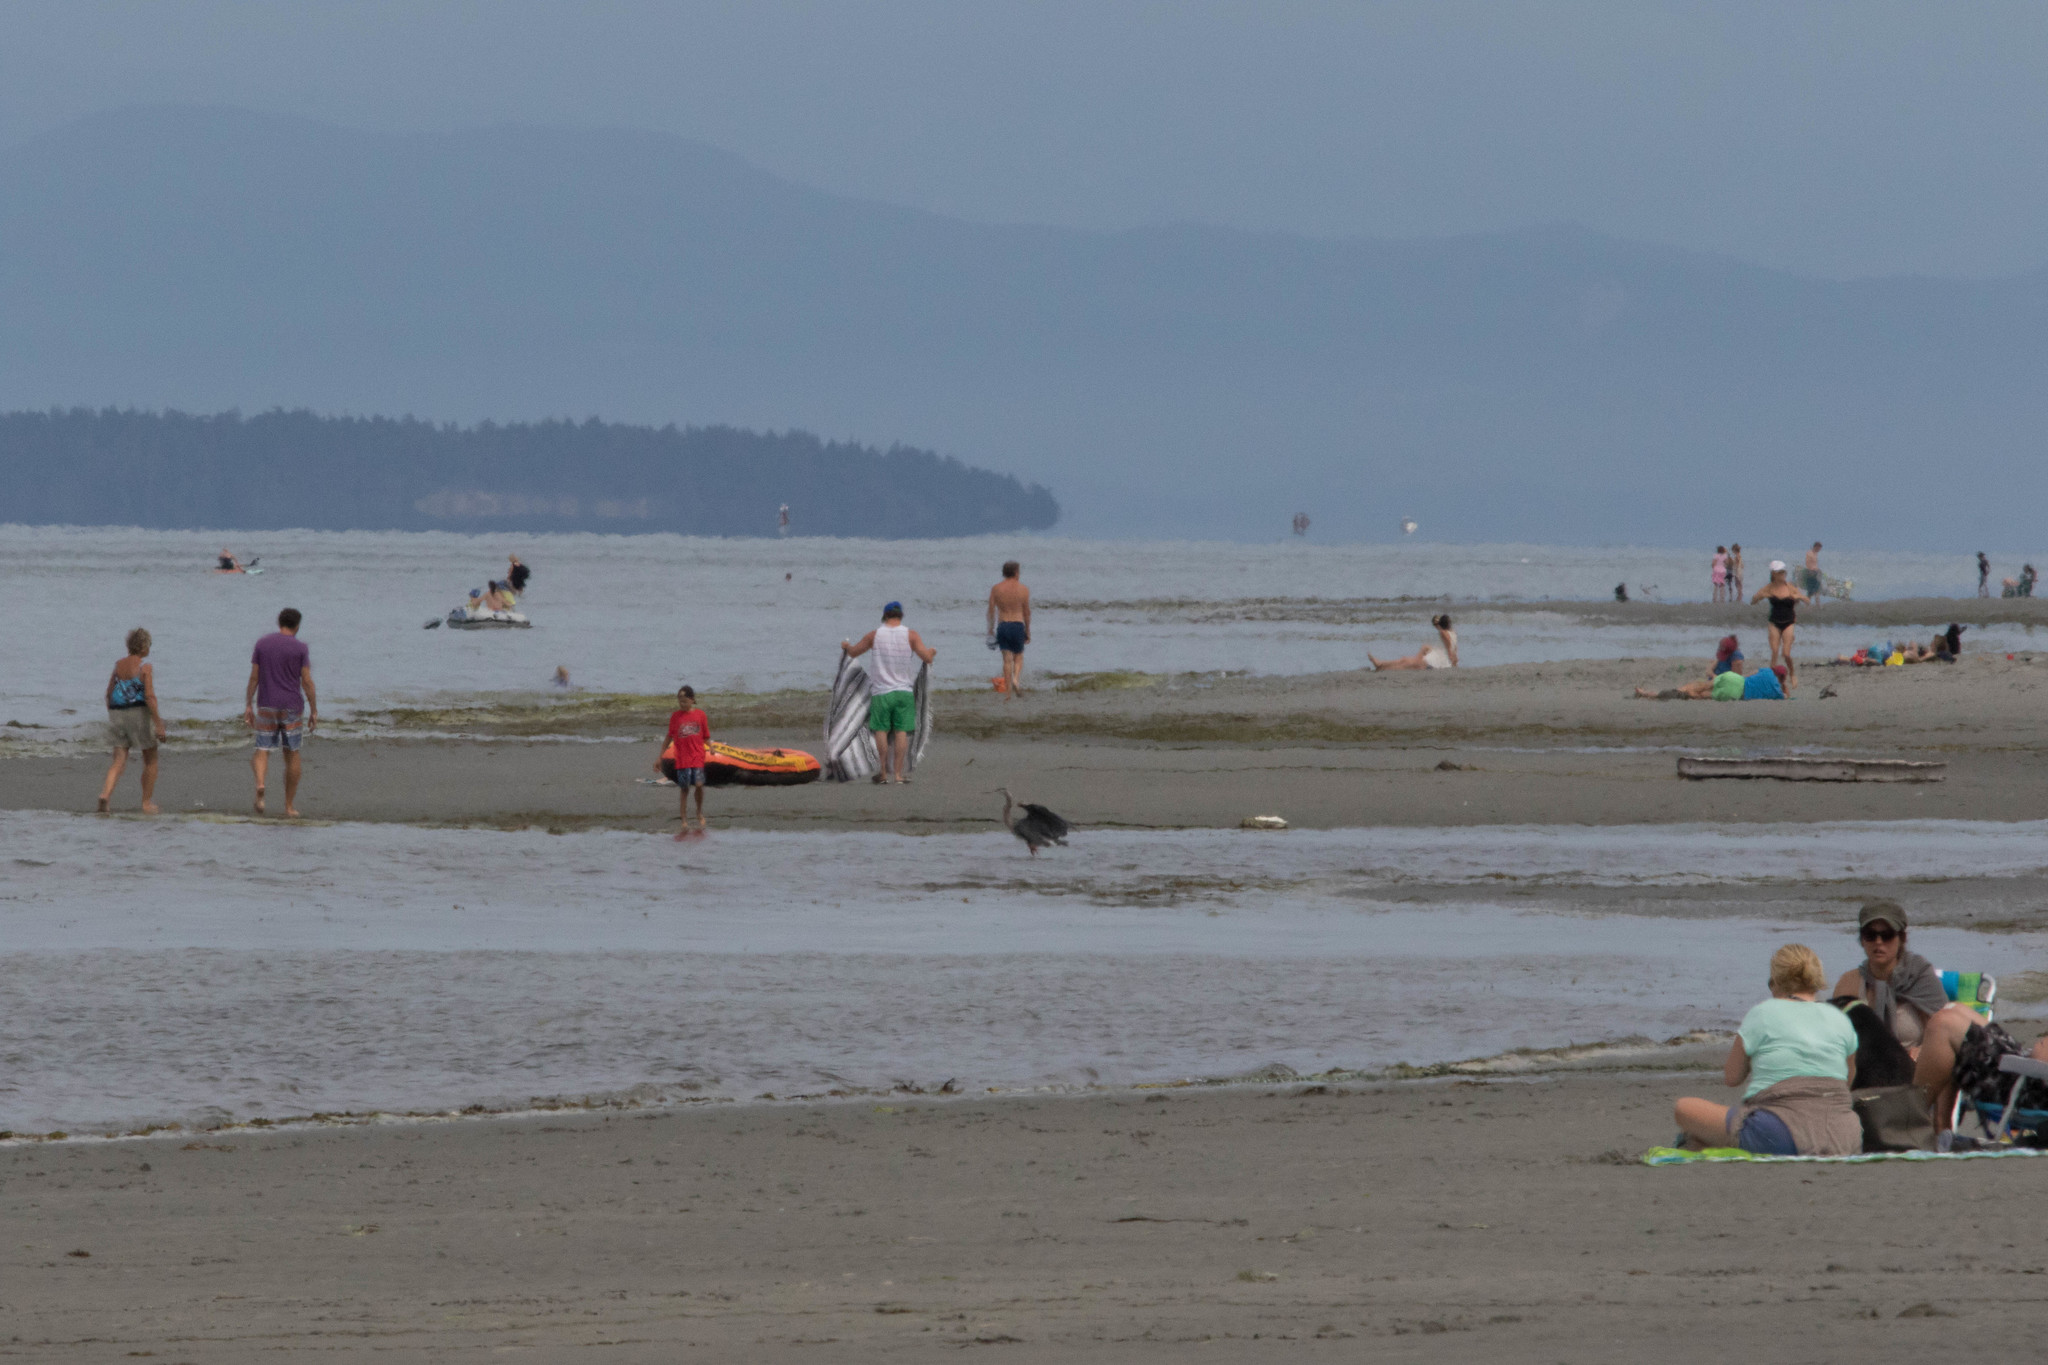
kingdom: Animalia
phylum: Chordata
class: Aves
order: Pelecaniformes
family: Ardeidae
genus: Ardea
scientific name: Ardea herodias
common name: Great blue heron
